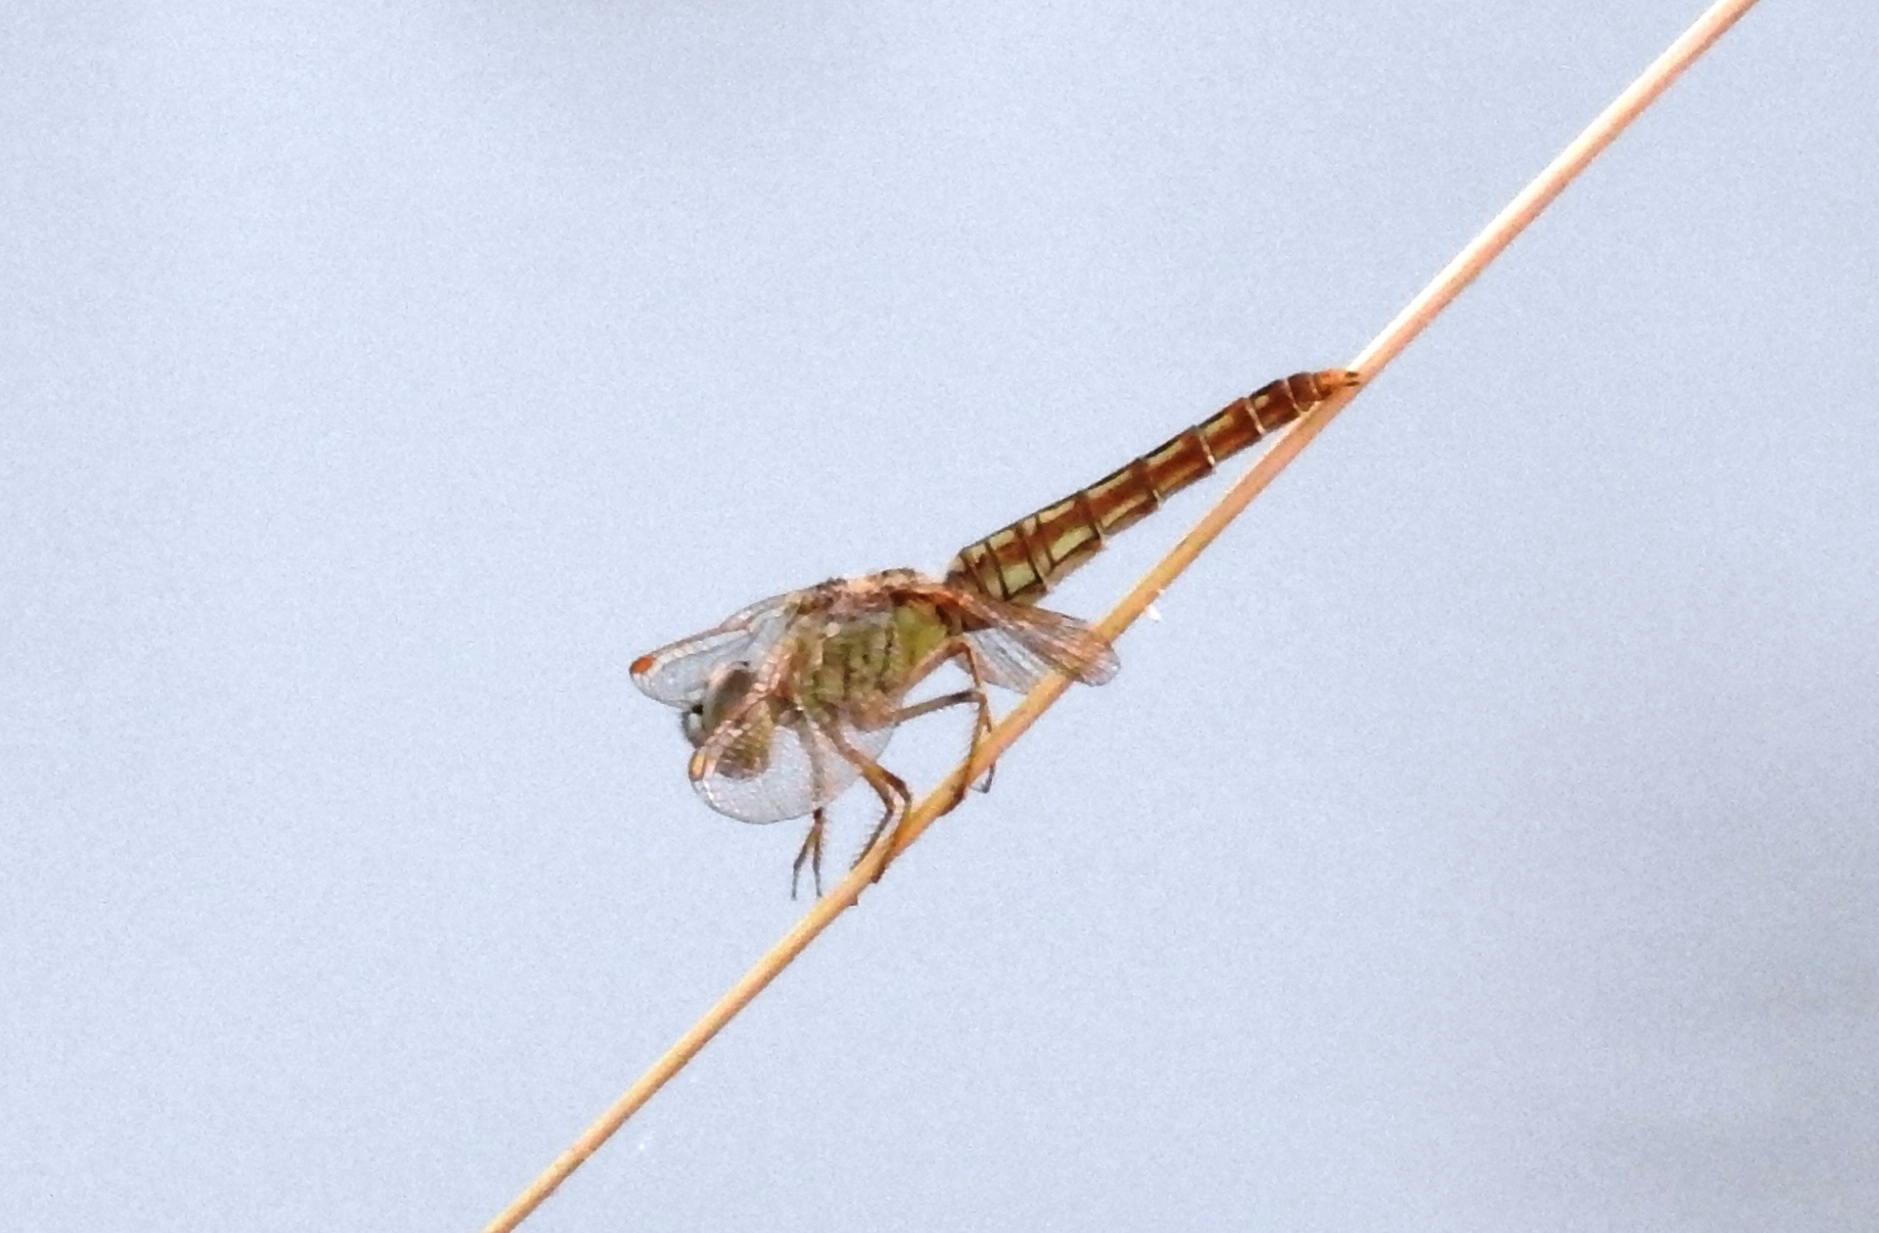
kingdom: Animalia
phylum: Arthropoda
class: Insecta
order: Odonata
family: Libellulidae
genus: Brachythemis
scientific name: Brachythemis contaminata
